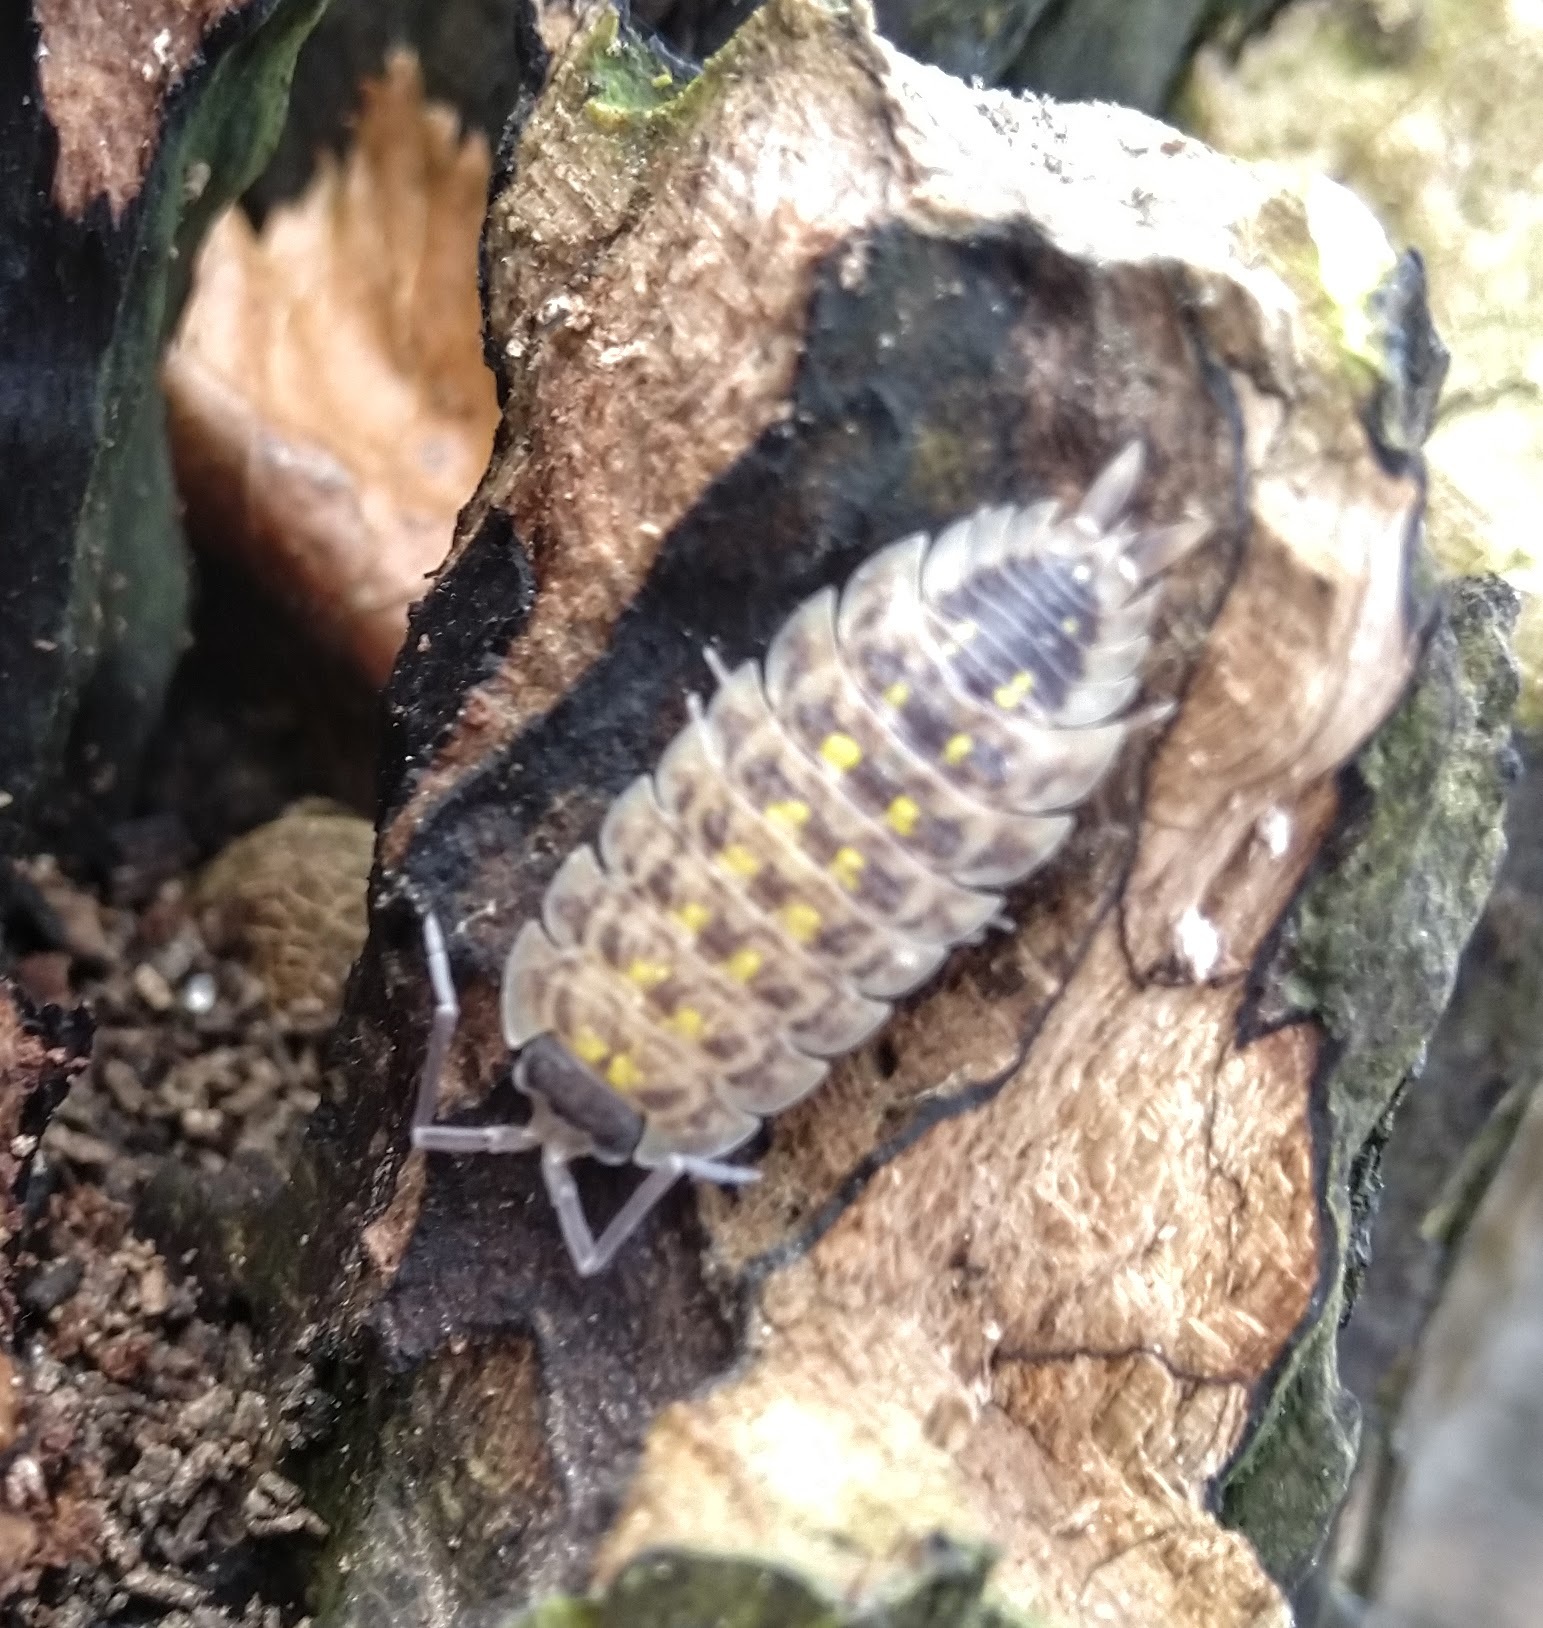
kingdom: Animalia
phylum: Arthropoda
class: Malacostraca
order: Isopoda
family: Porcellionidae
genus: Porcellio
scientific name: Porcellio spinicornis
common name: Painted woodlouse
